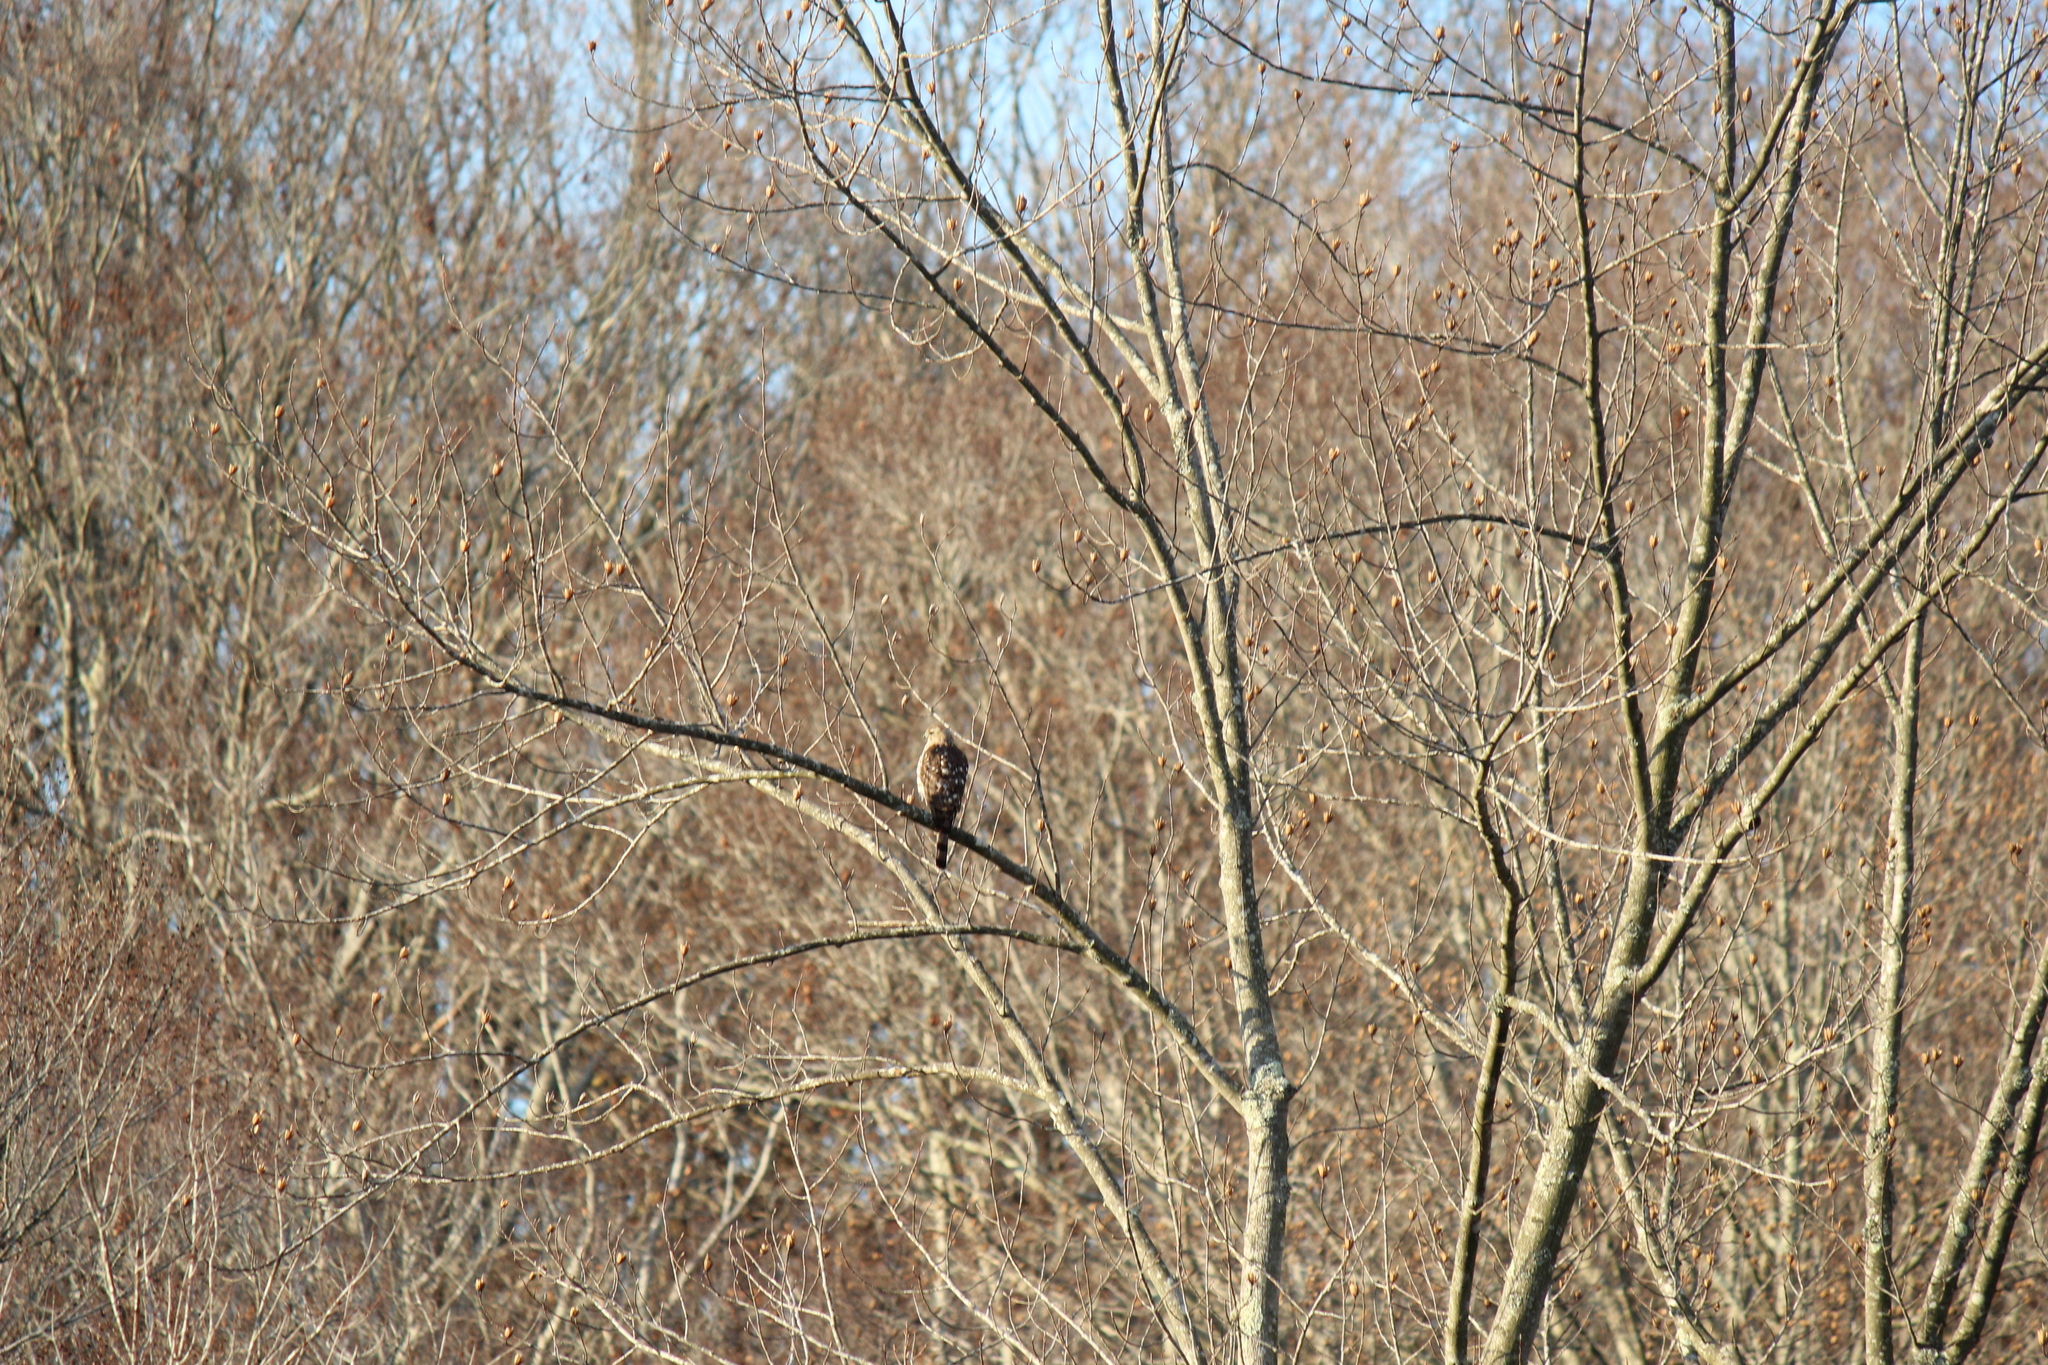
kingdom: Animalia
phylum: Chordata
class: Aves
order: Accipitriformes
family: Accipitridae
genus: Accipiter
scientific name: Accipiter cooperii
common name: Cooper's hawk
